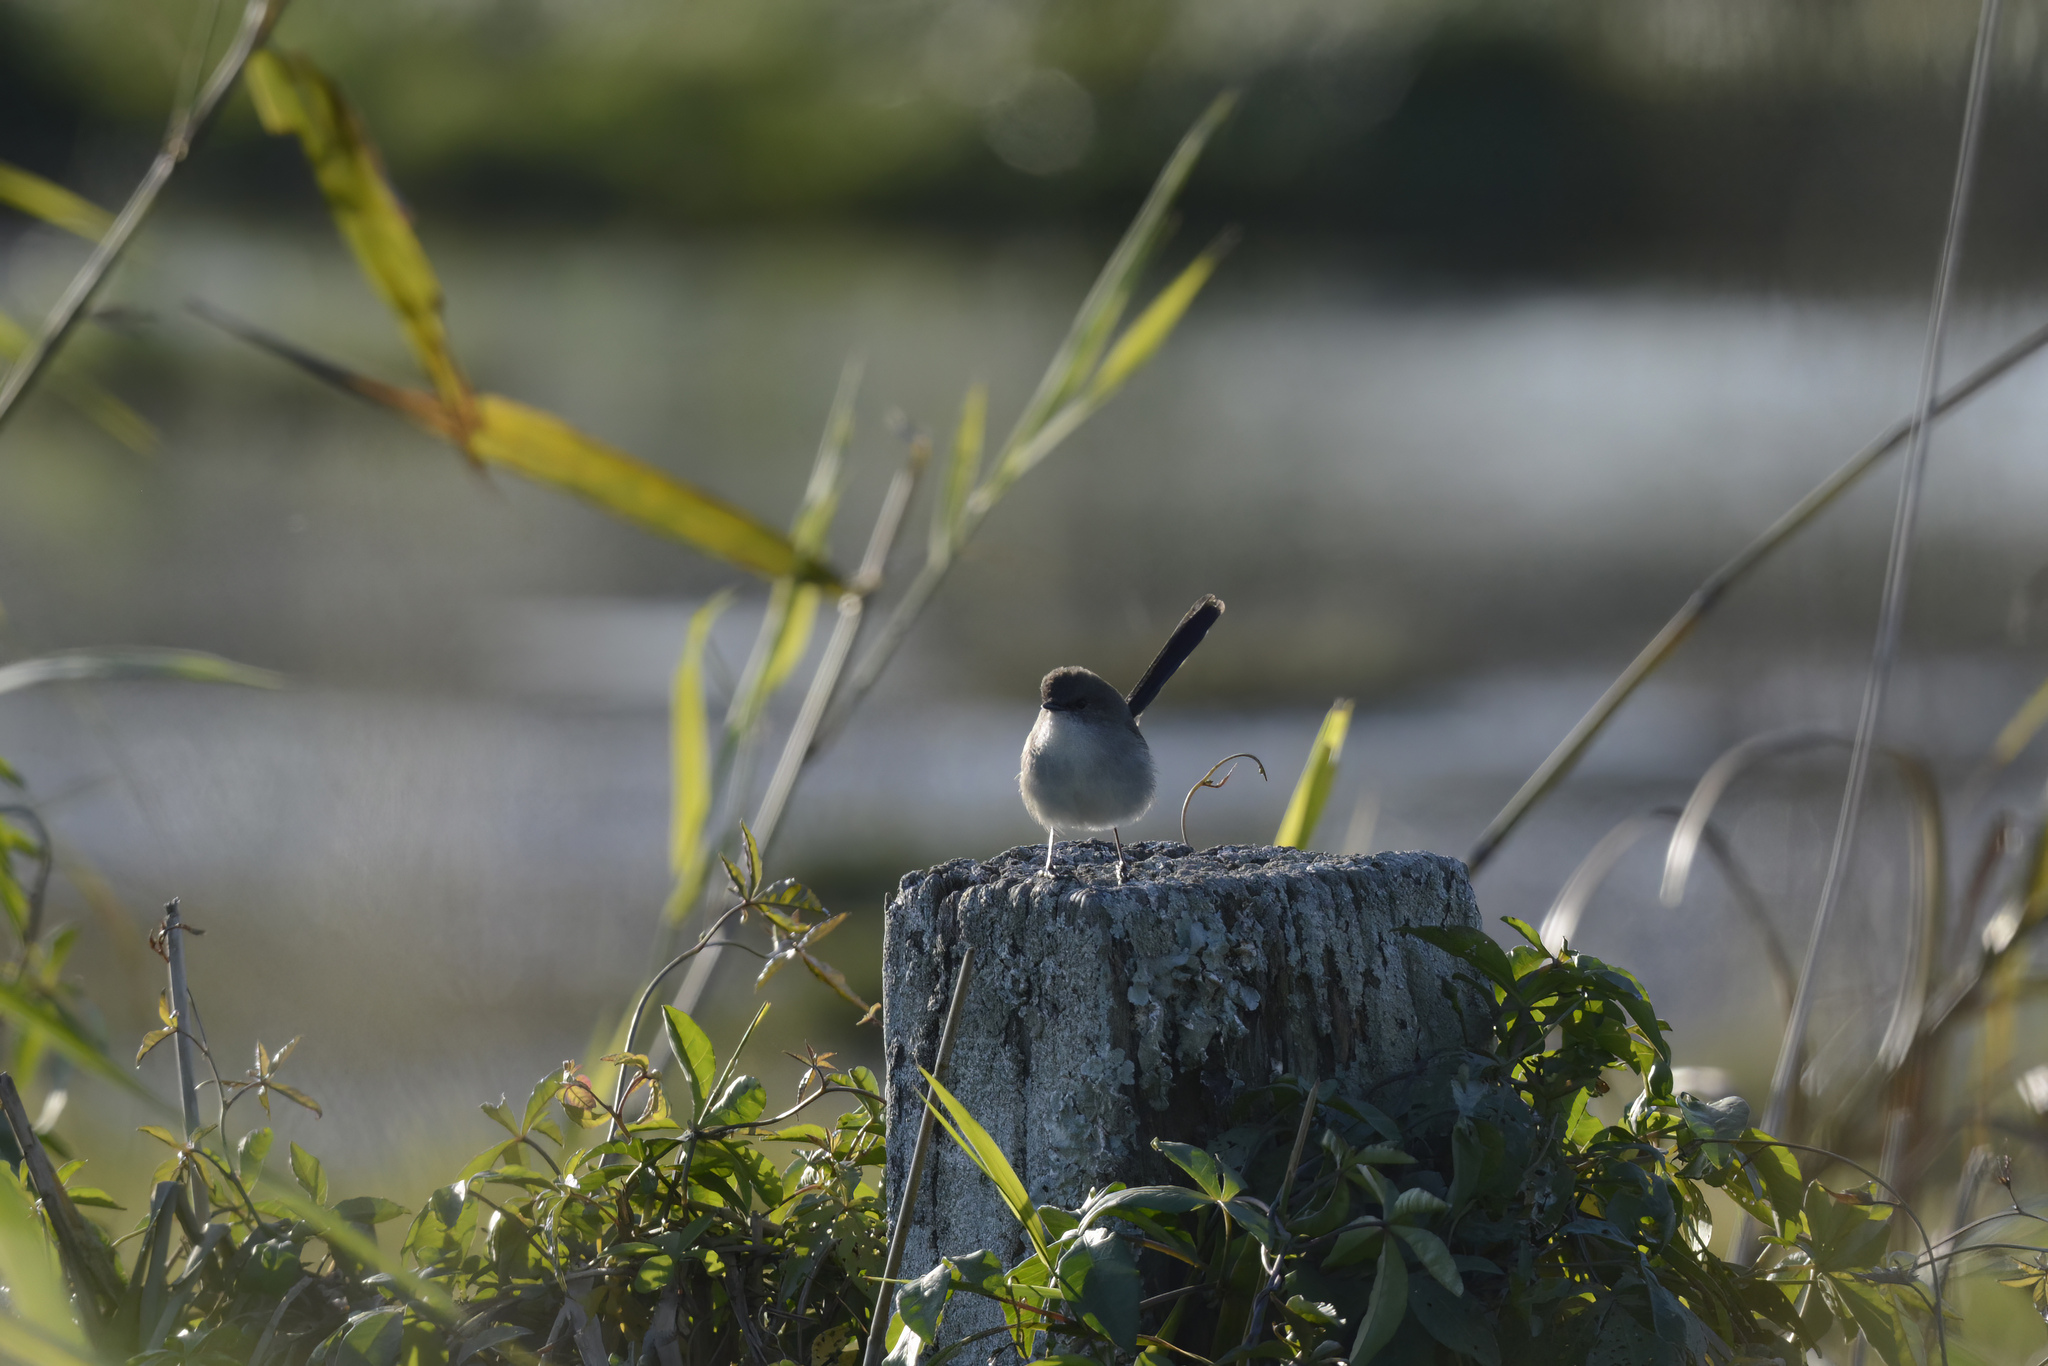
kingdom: Animalia
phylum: Chordata
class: Aves
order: Passeriformes
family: Maluridae
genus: Malurus
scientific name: Malurus cyaneus
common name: Superb fairywren
